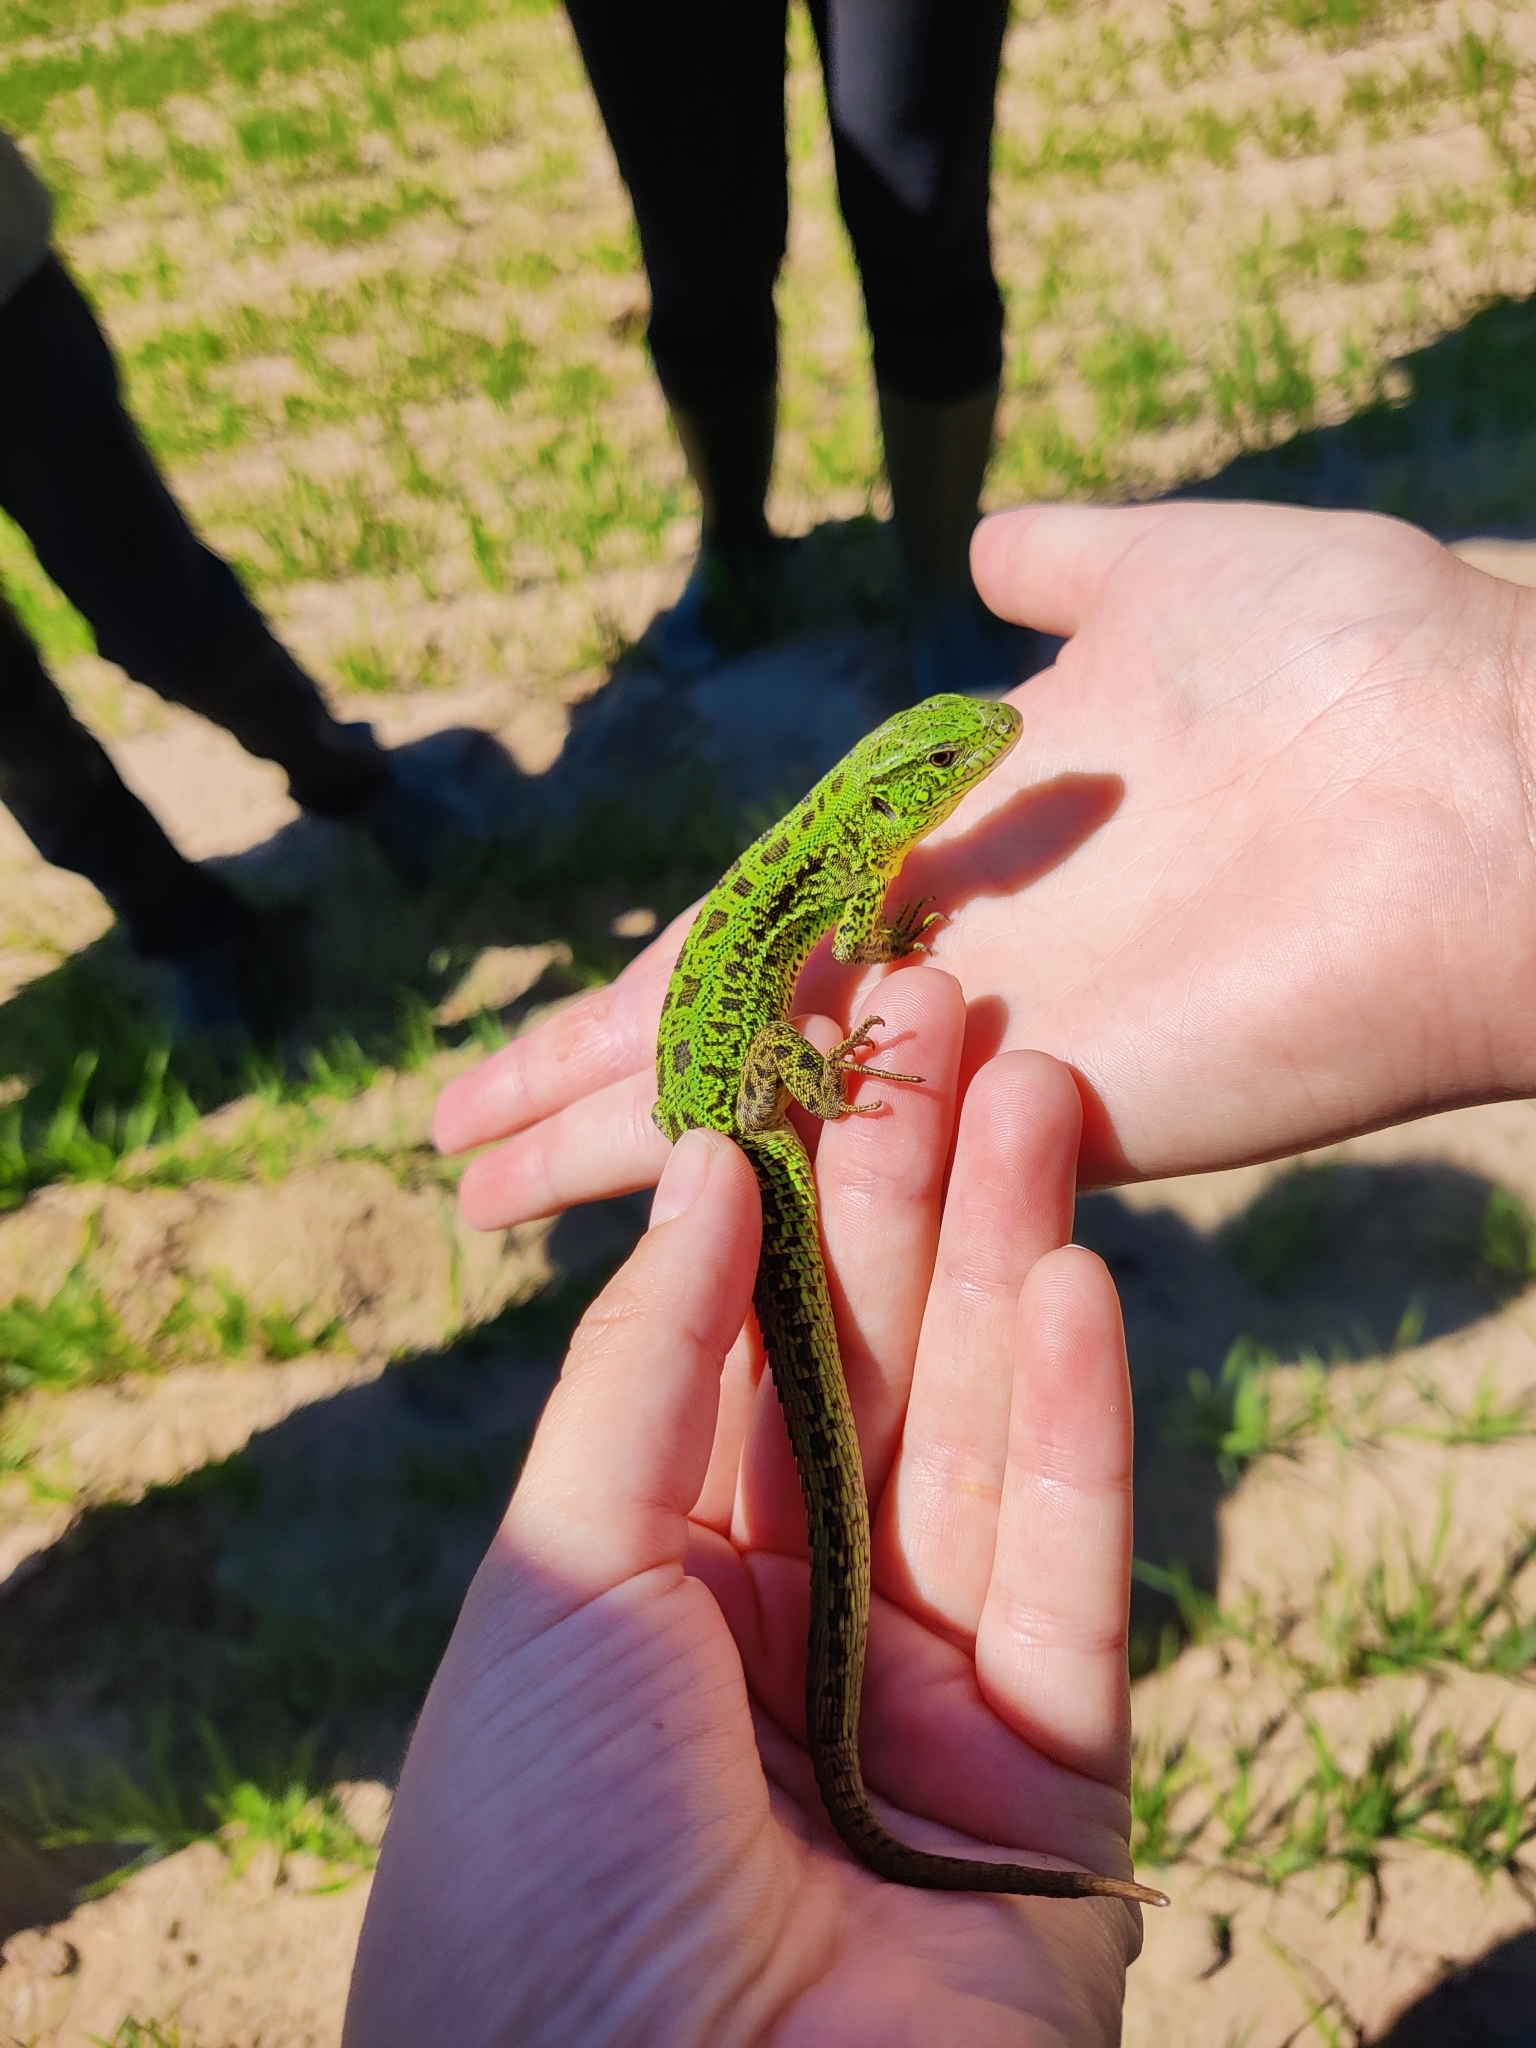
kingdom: Animalia
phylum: Chordata
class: Squamata
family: Lacertidae
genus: Lacerta
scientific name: Lacerta agilis
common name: Sand lizard
